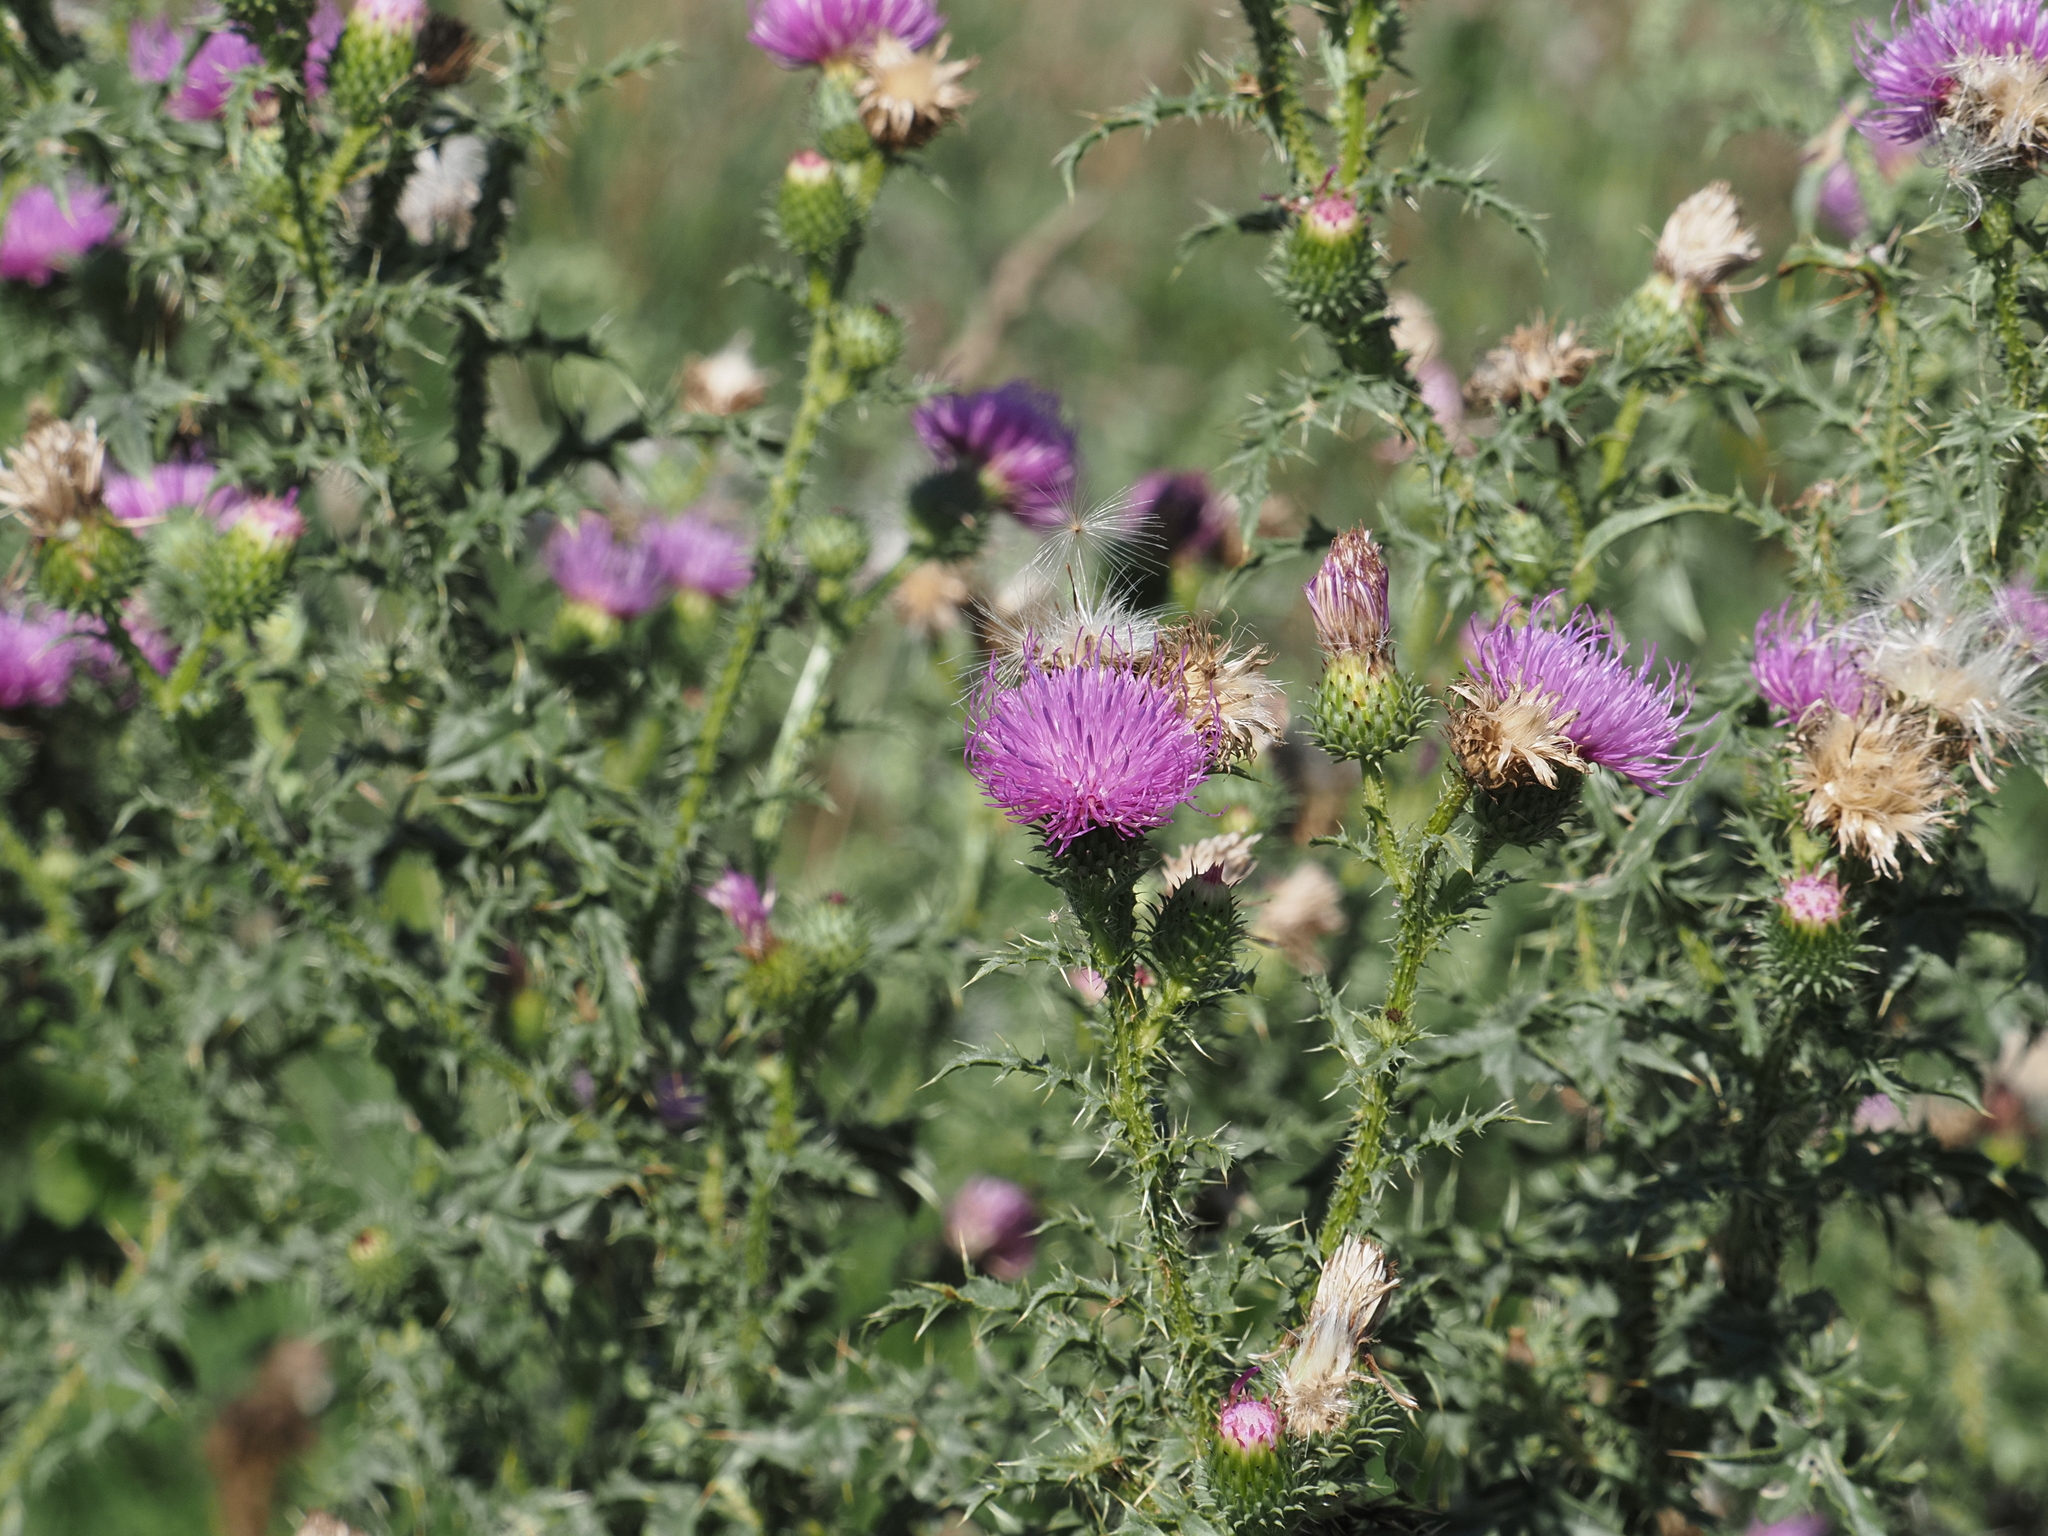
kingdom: Plantae
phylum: Tracheophyta
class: Magnoliopsida
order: Asterales
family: Asteraceae
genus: Carduus
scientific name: Carduus acanthoides
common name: Plumeless thistle
